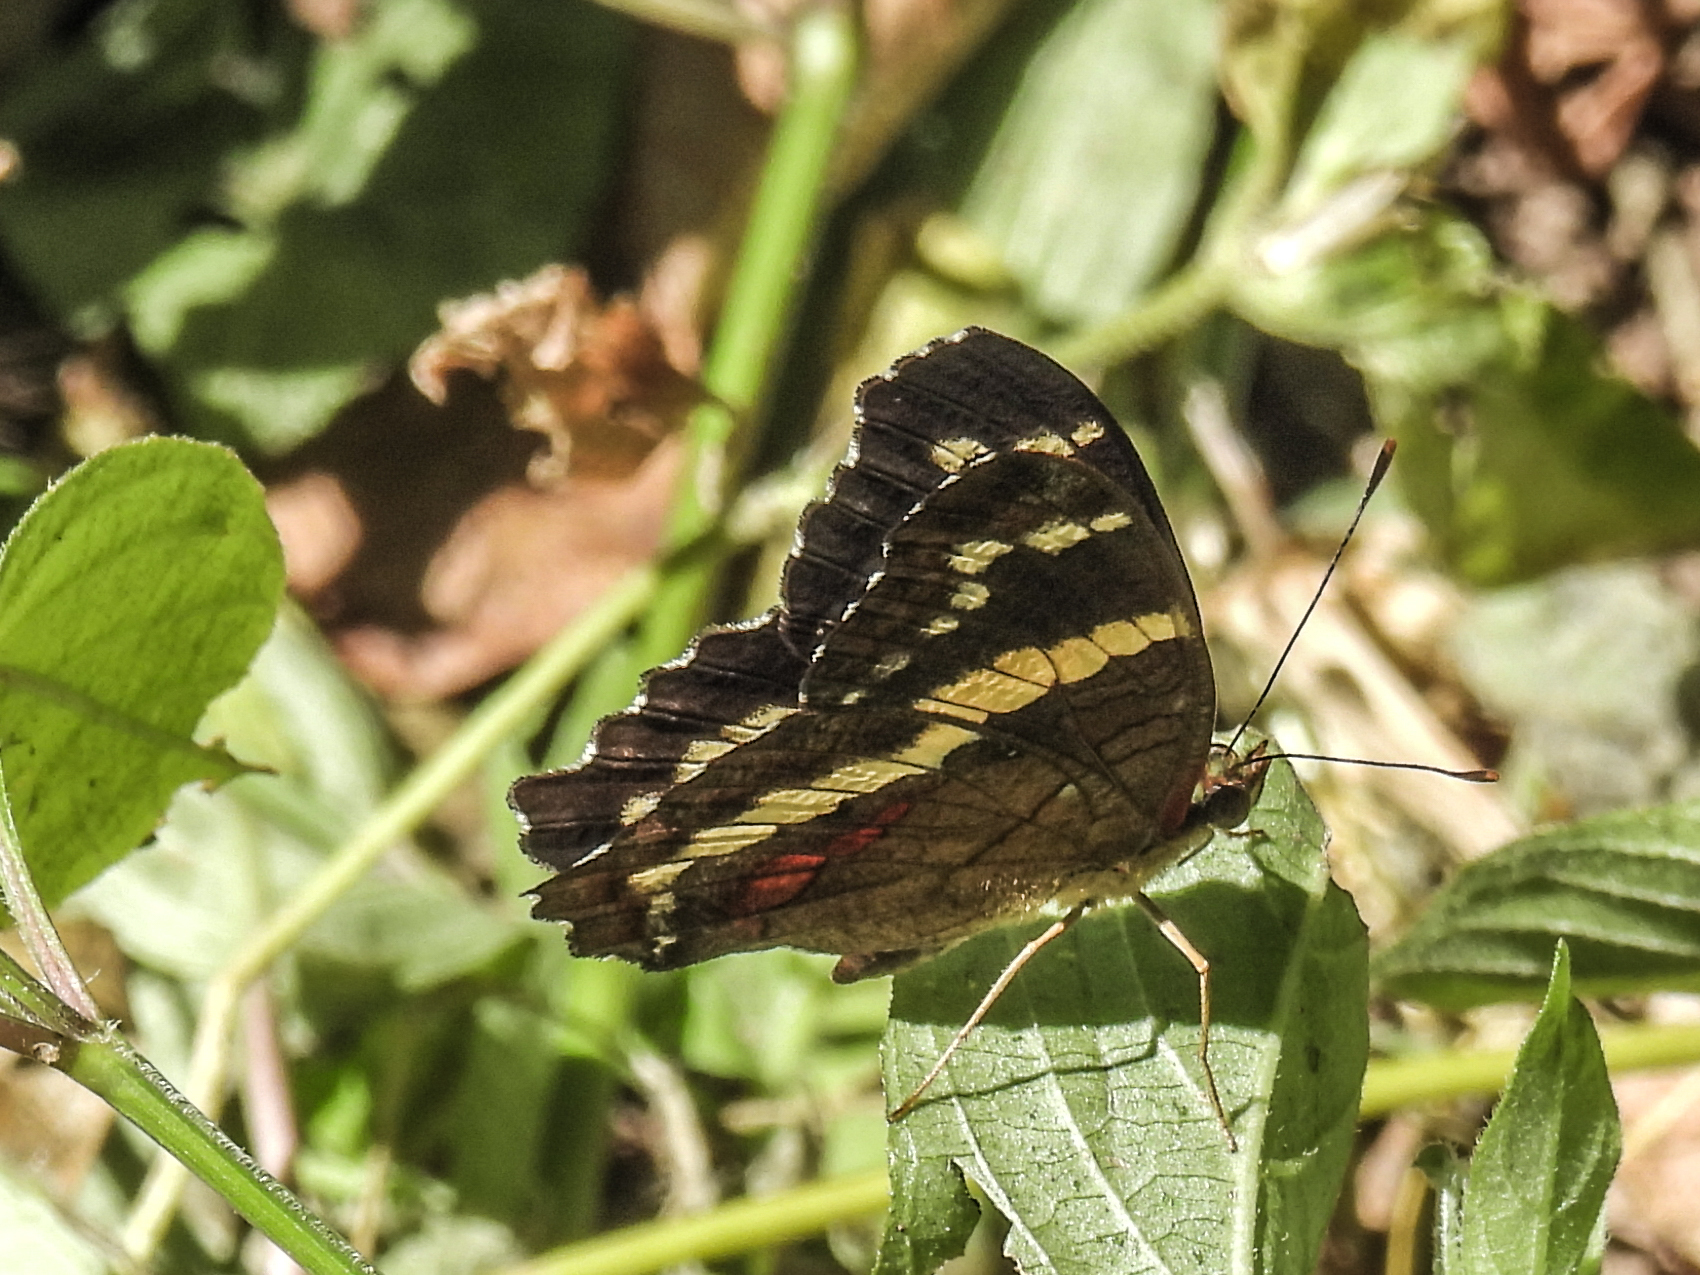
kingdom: Animalia
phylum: Arthropoda
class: Insecta
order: Lepidoptera
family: Nymphalidae
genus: Anartia
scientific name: Anartia fatima
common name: Banded peacock
